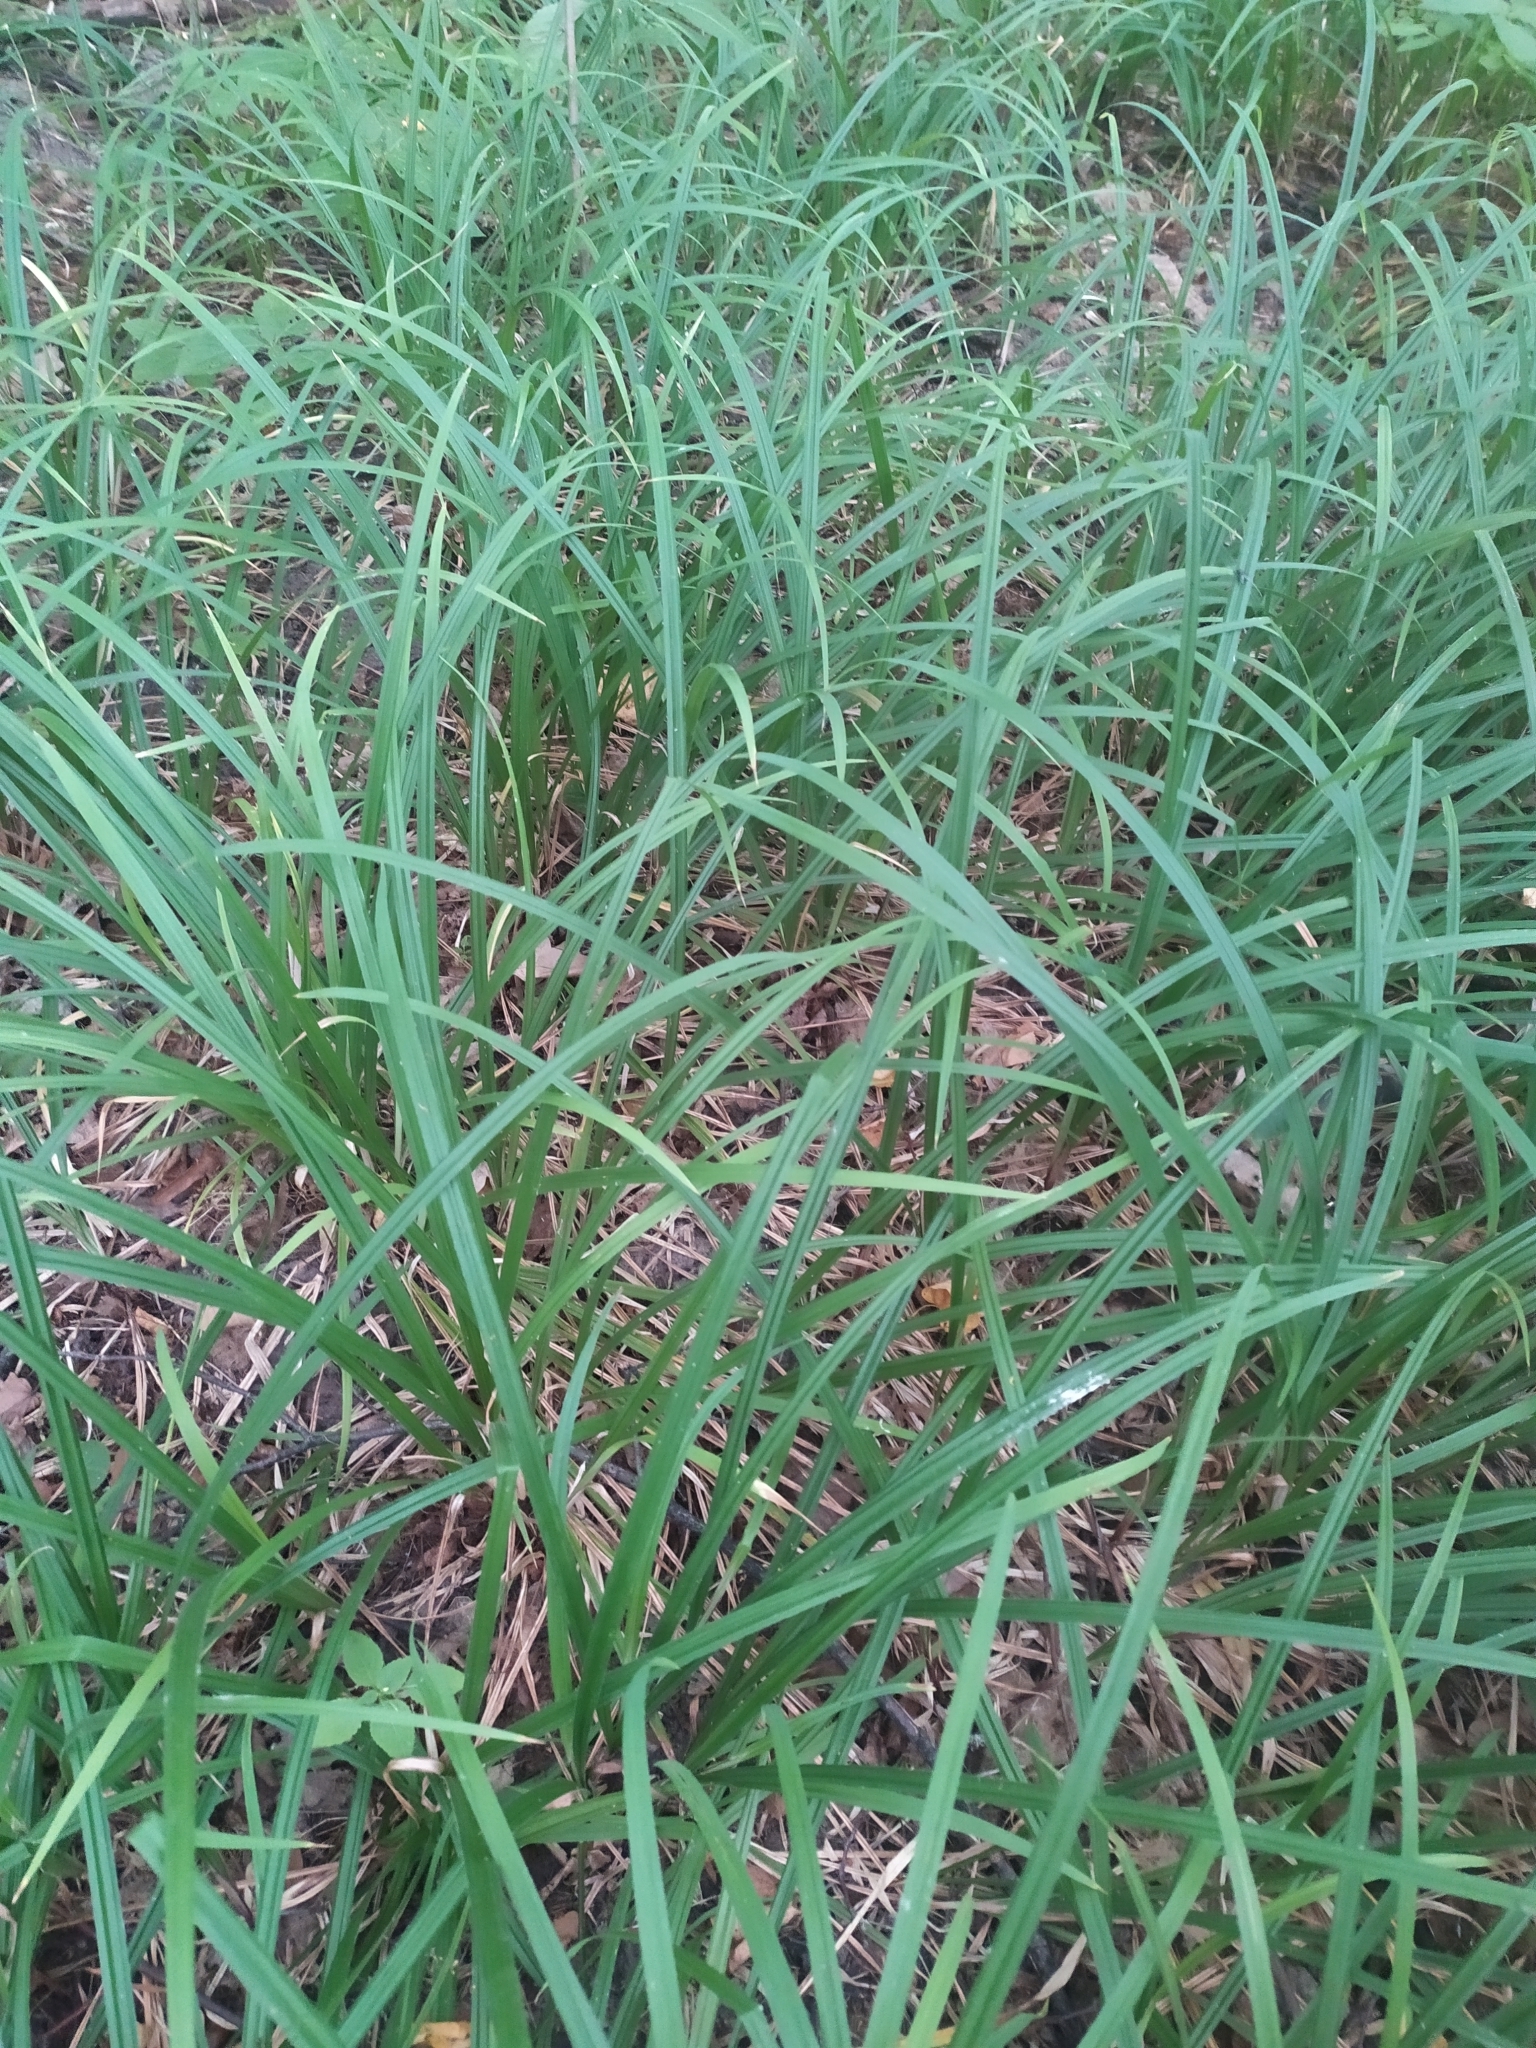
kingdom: Plantae
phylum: Tracheophyta
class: Liliopsida
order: Poales
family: Cyperaceae
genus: Carex
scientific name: Carex pilosa
